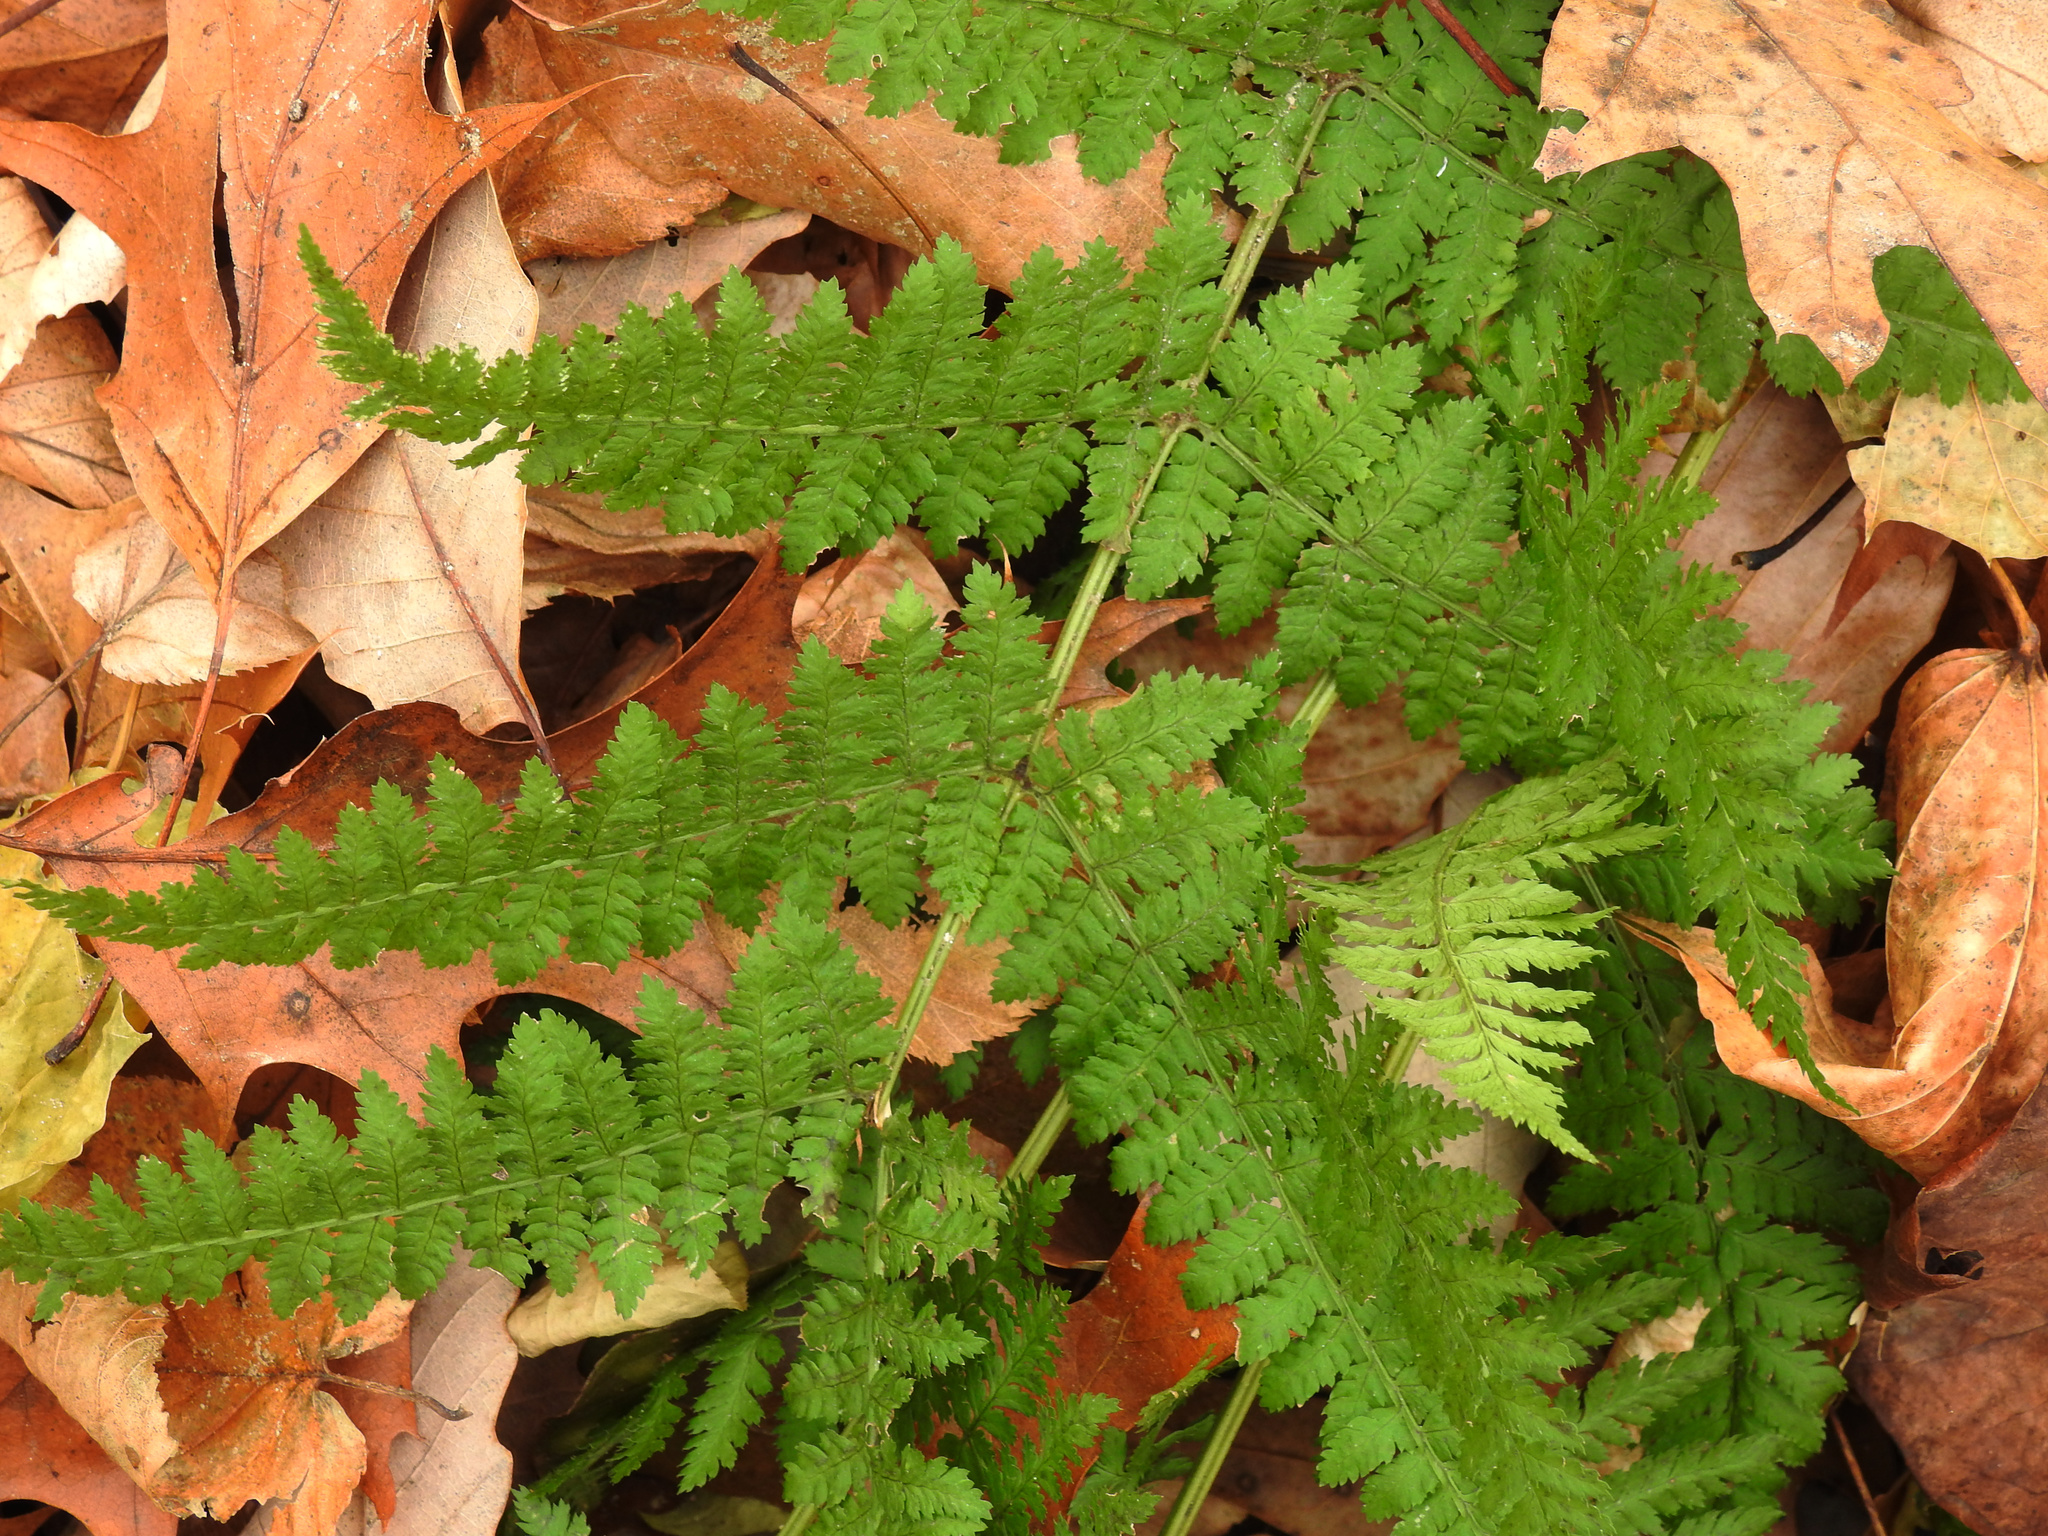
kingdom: Plantae
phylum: Tracheophyta
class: Polypodiopsida
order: Polypodiales
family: Dryopteridaceae
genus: Dryopteris
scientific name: Dryopteris intermedia
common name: Evergreen wood fern
